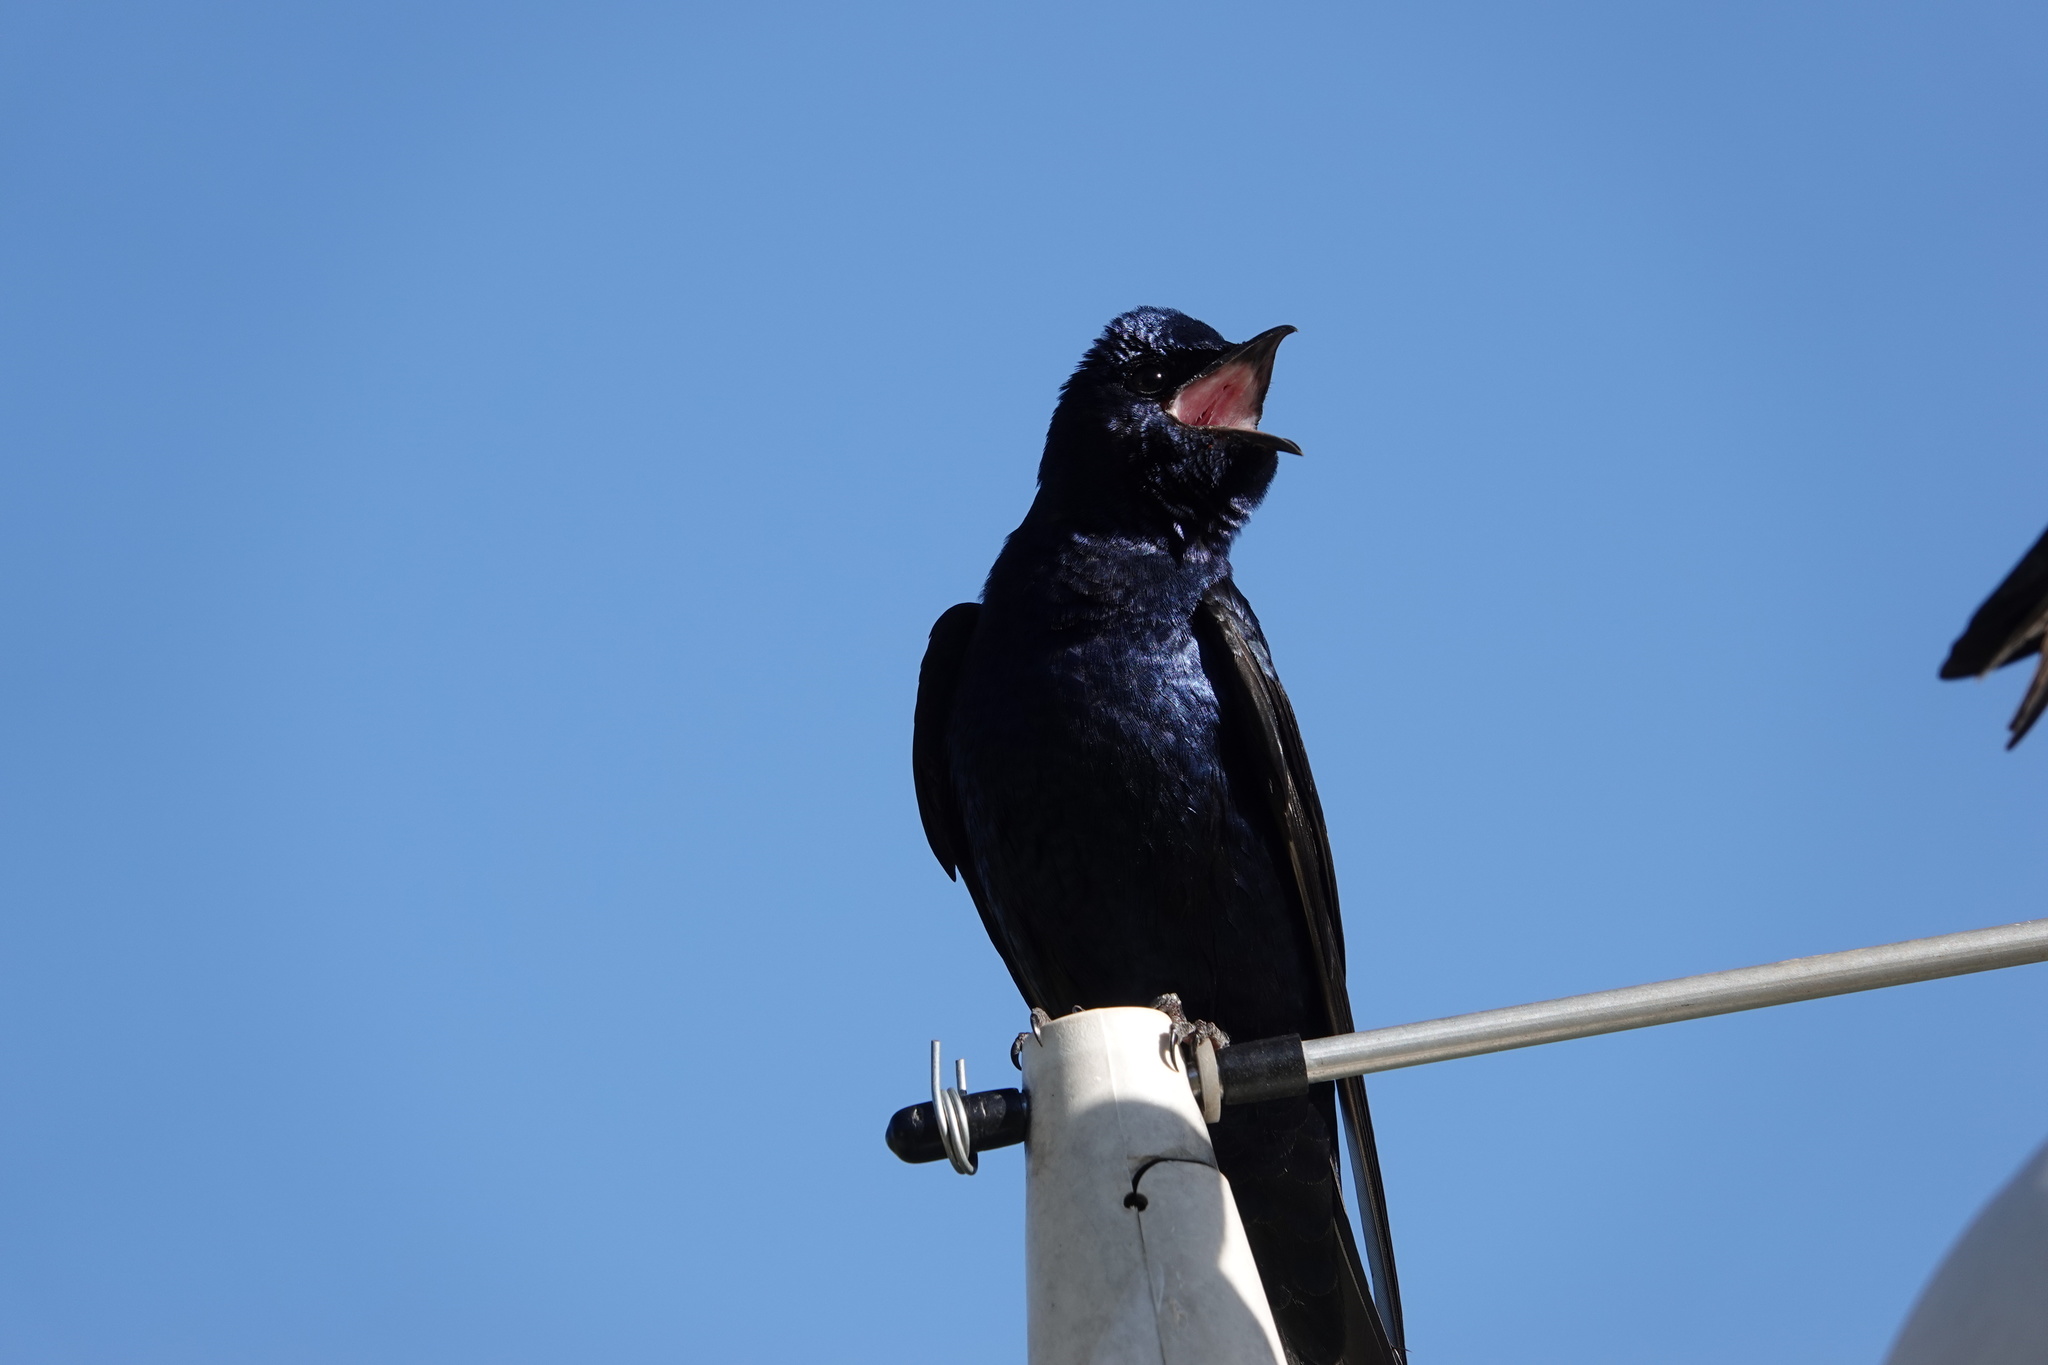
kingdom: Animalia
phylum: Chordata
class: Aves
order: Passeriformes
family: Hirundinidae
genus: Progne
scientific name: Progne subis
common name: Purple martin
